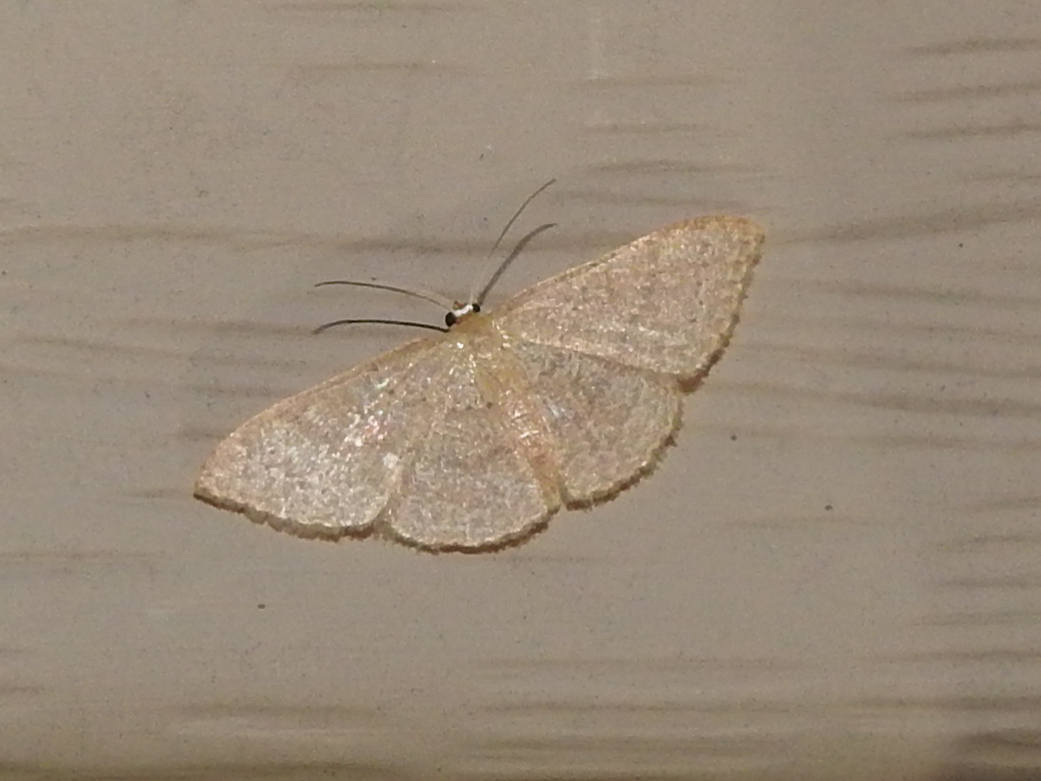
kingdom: Animalia
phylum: Arthropoda
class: Insecta
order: Lepidoptera
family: Geometridae
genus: Pleuroprucha
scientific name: Pleuroprucha insulsaria
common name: Common tan wave
